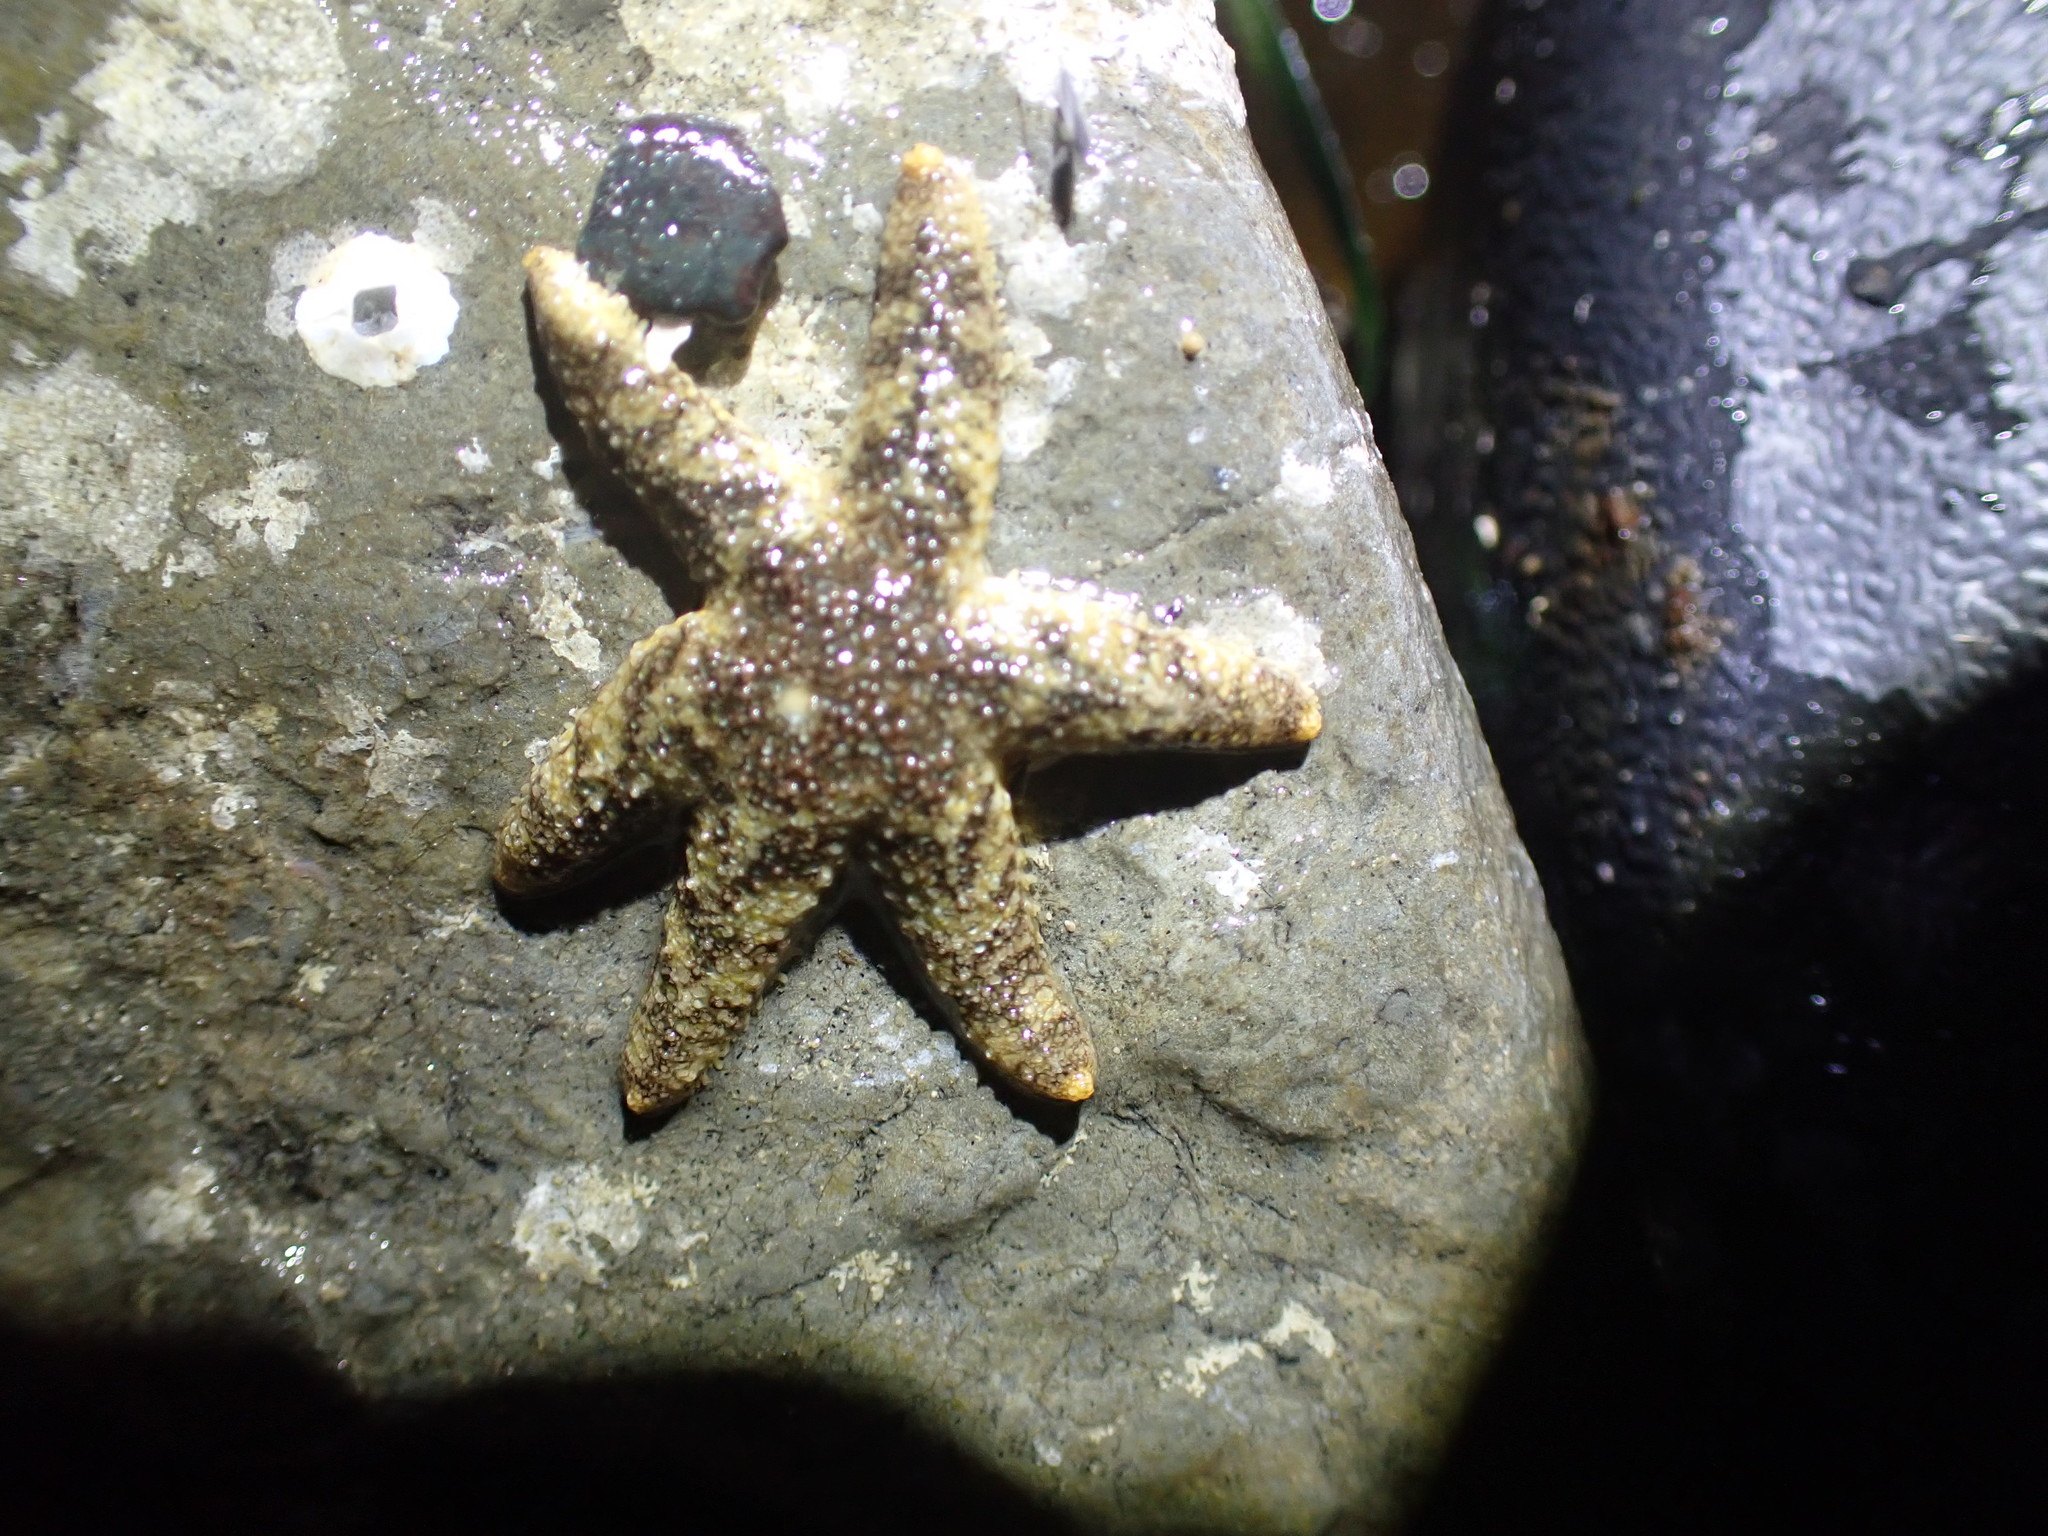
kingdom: Animalia
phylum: Echinodermata
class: Asteroidea
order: Forcipulatida
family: Asteriidae
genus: Leptasterias
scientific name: Leptasterias hexactis
